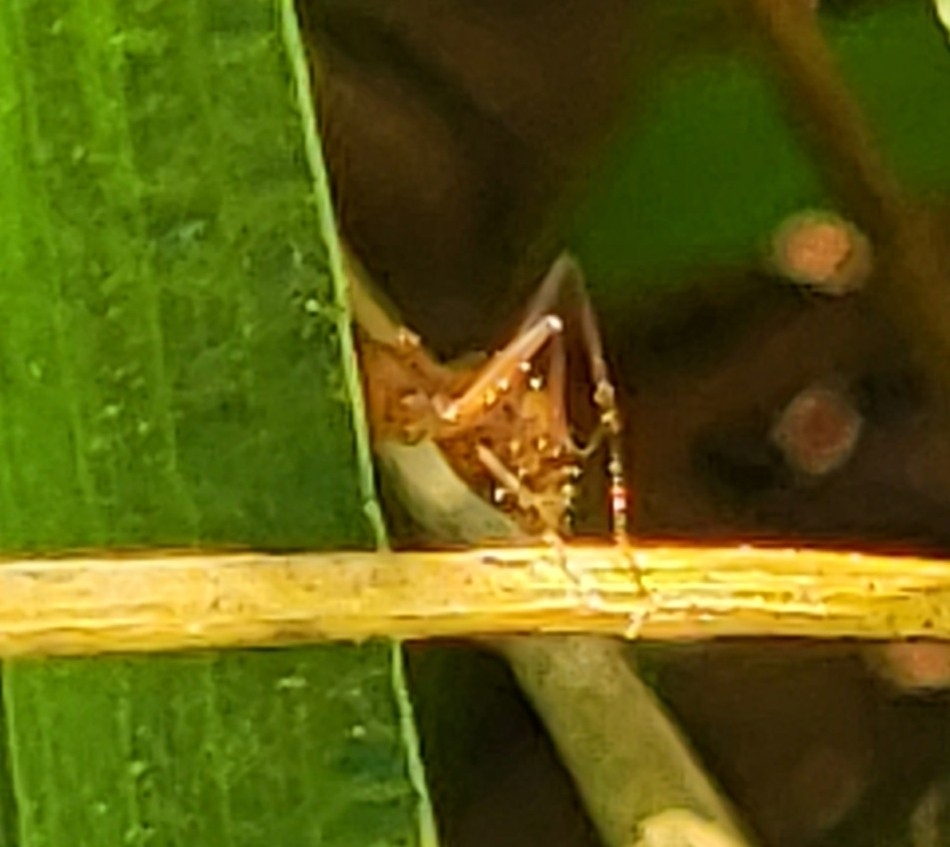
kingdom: Animalia
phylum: Arthropoda
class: Insecta
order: Hymenoptera
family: Formicidae
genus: Formica
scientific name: Formica
